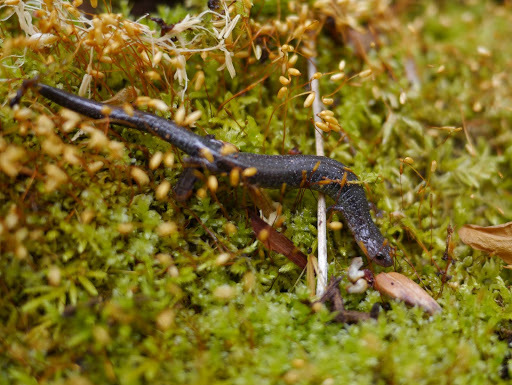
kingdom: Animalia
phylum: Chordata
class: Amphibia
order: Caudata
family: Plethodontidae
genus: Plethodon
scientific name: Plethodon cinereus
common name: Redback salamander
